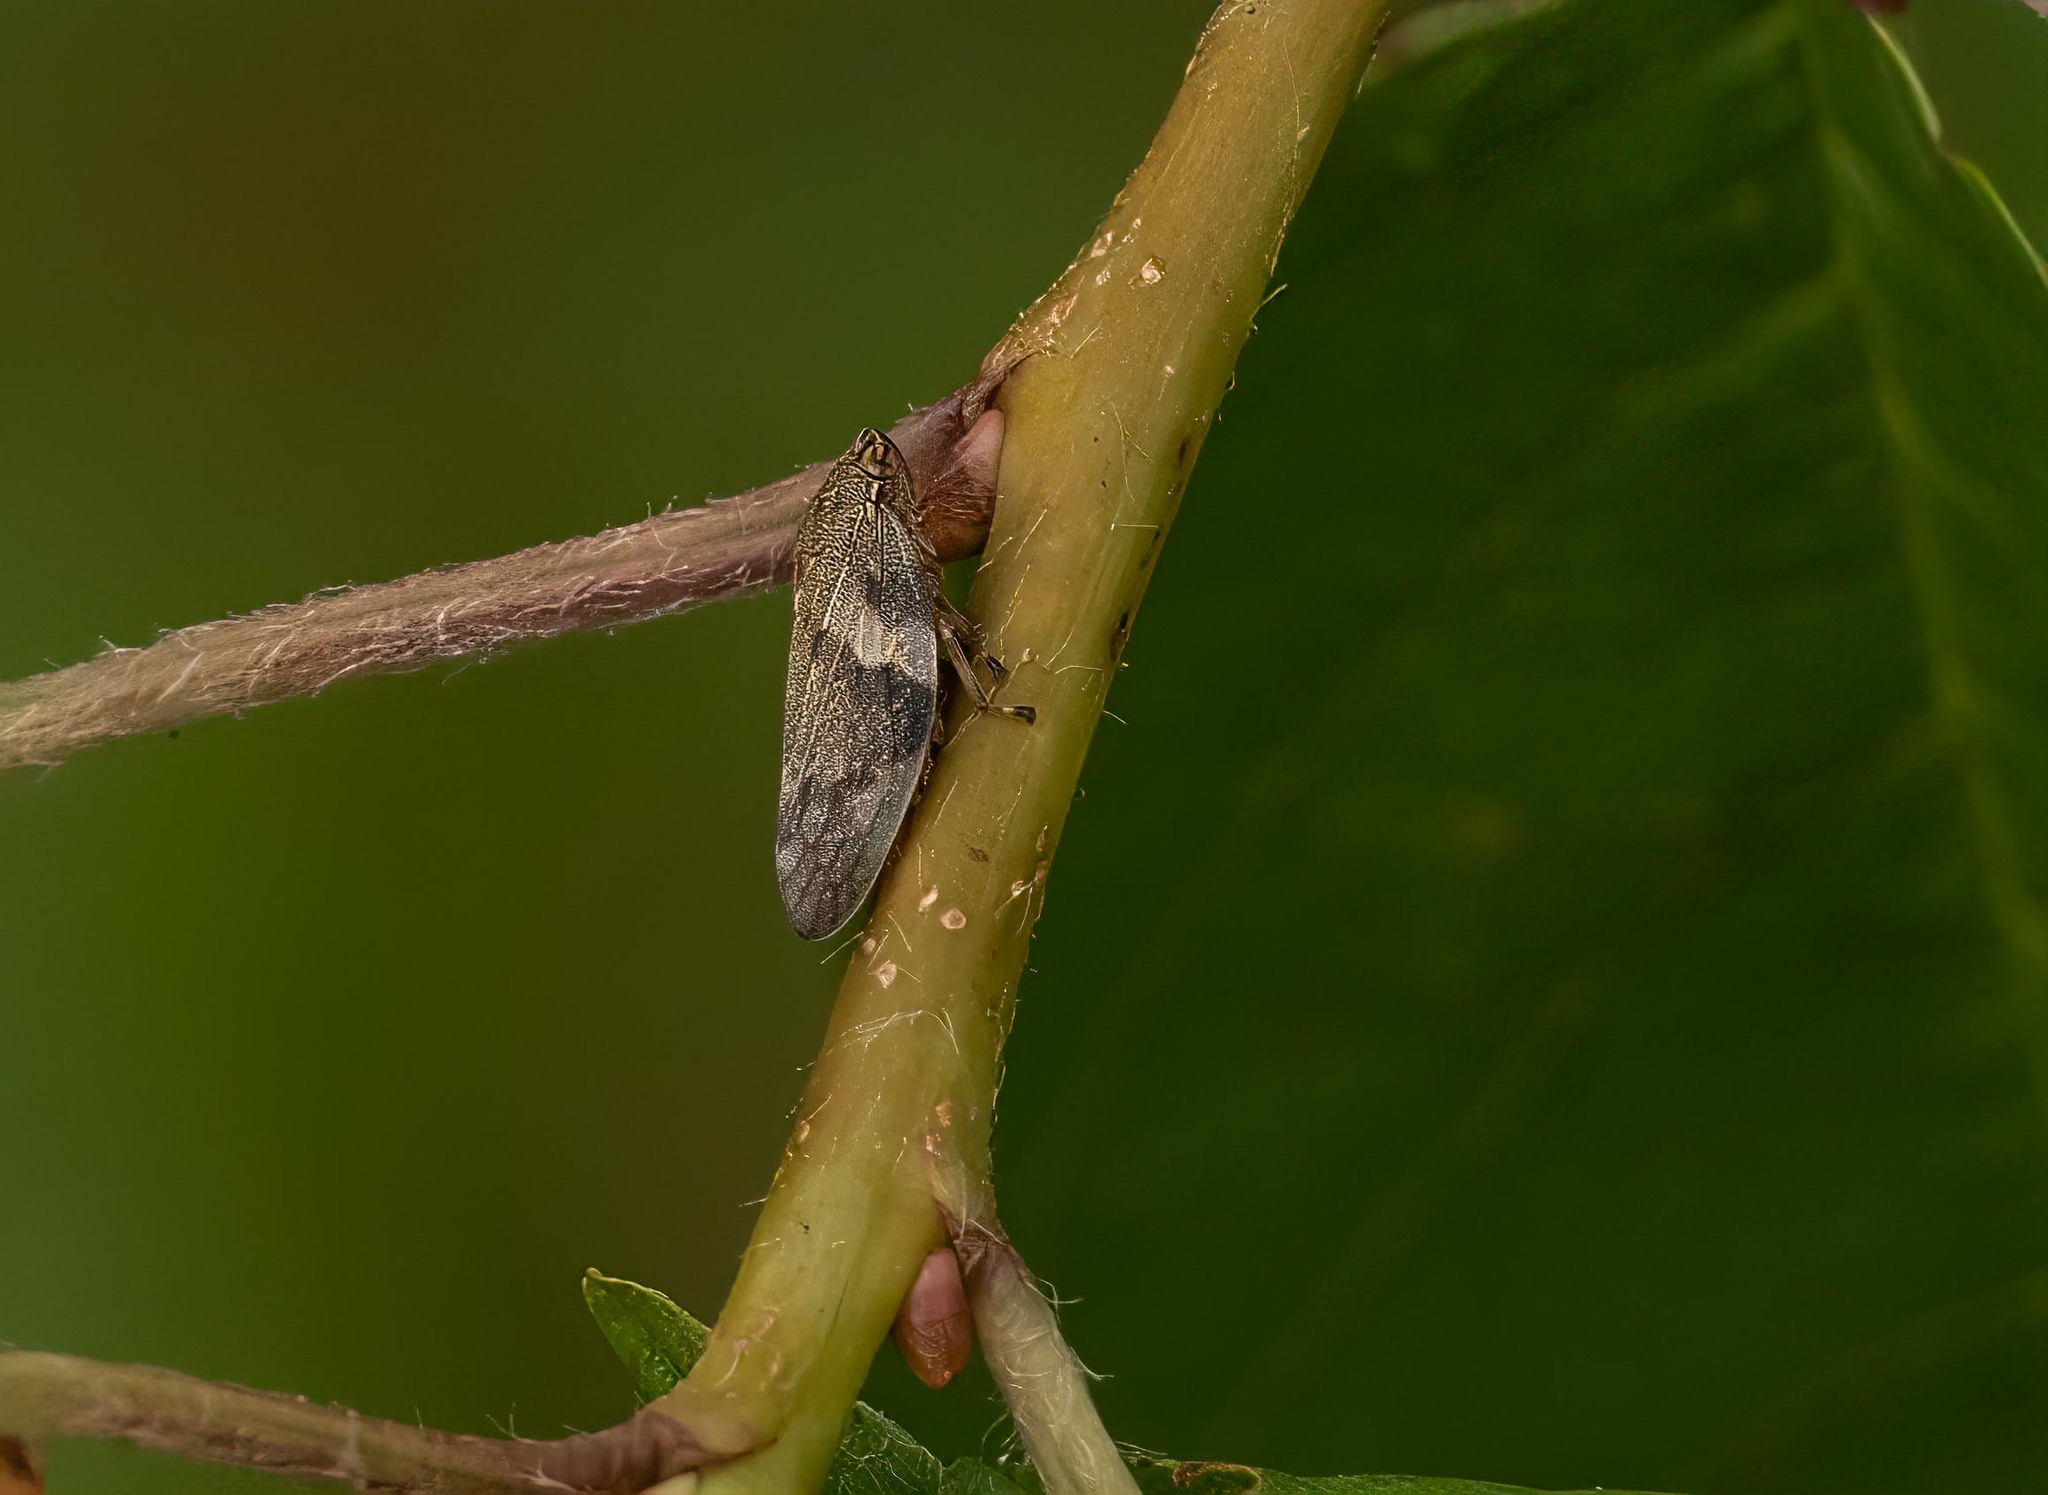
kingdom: Animalia
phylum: Arthropoda
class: Insecta
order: Hemiptera
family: Aphrophoridae
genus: Aphrophora
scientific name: Aphrophora alni
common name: European alder spittlebug
